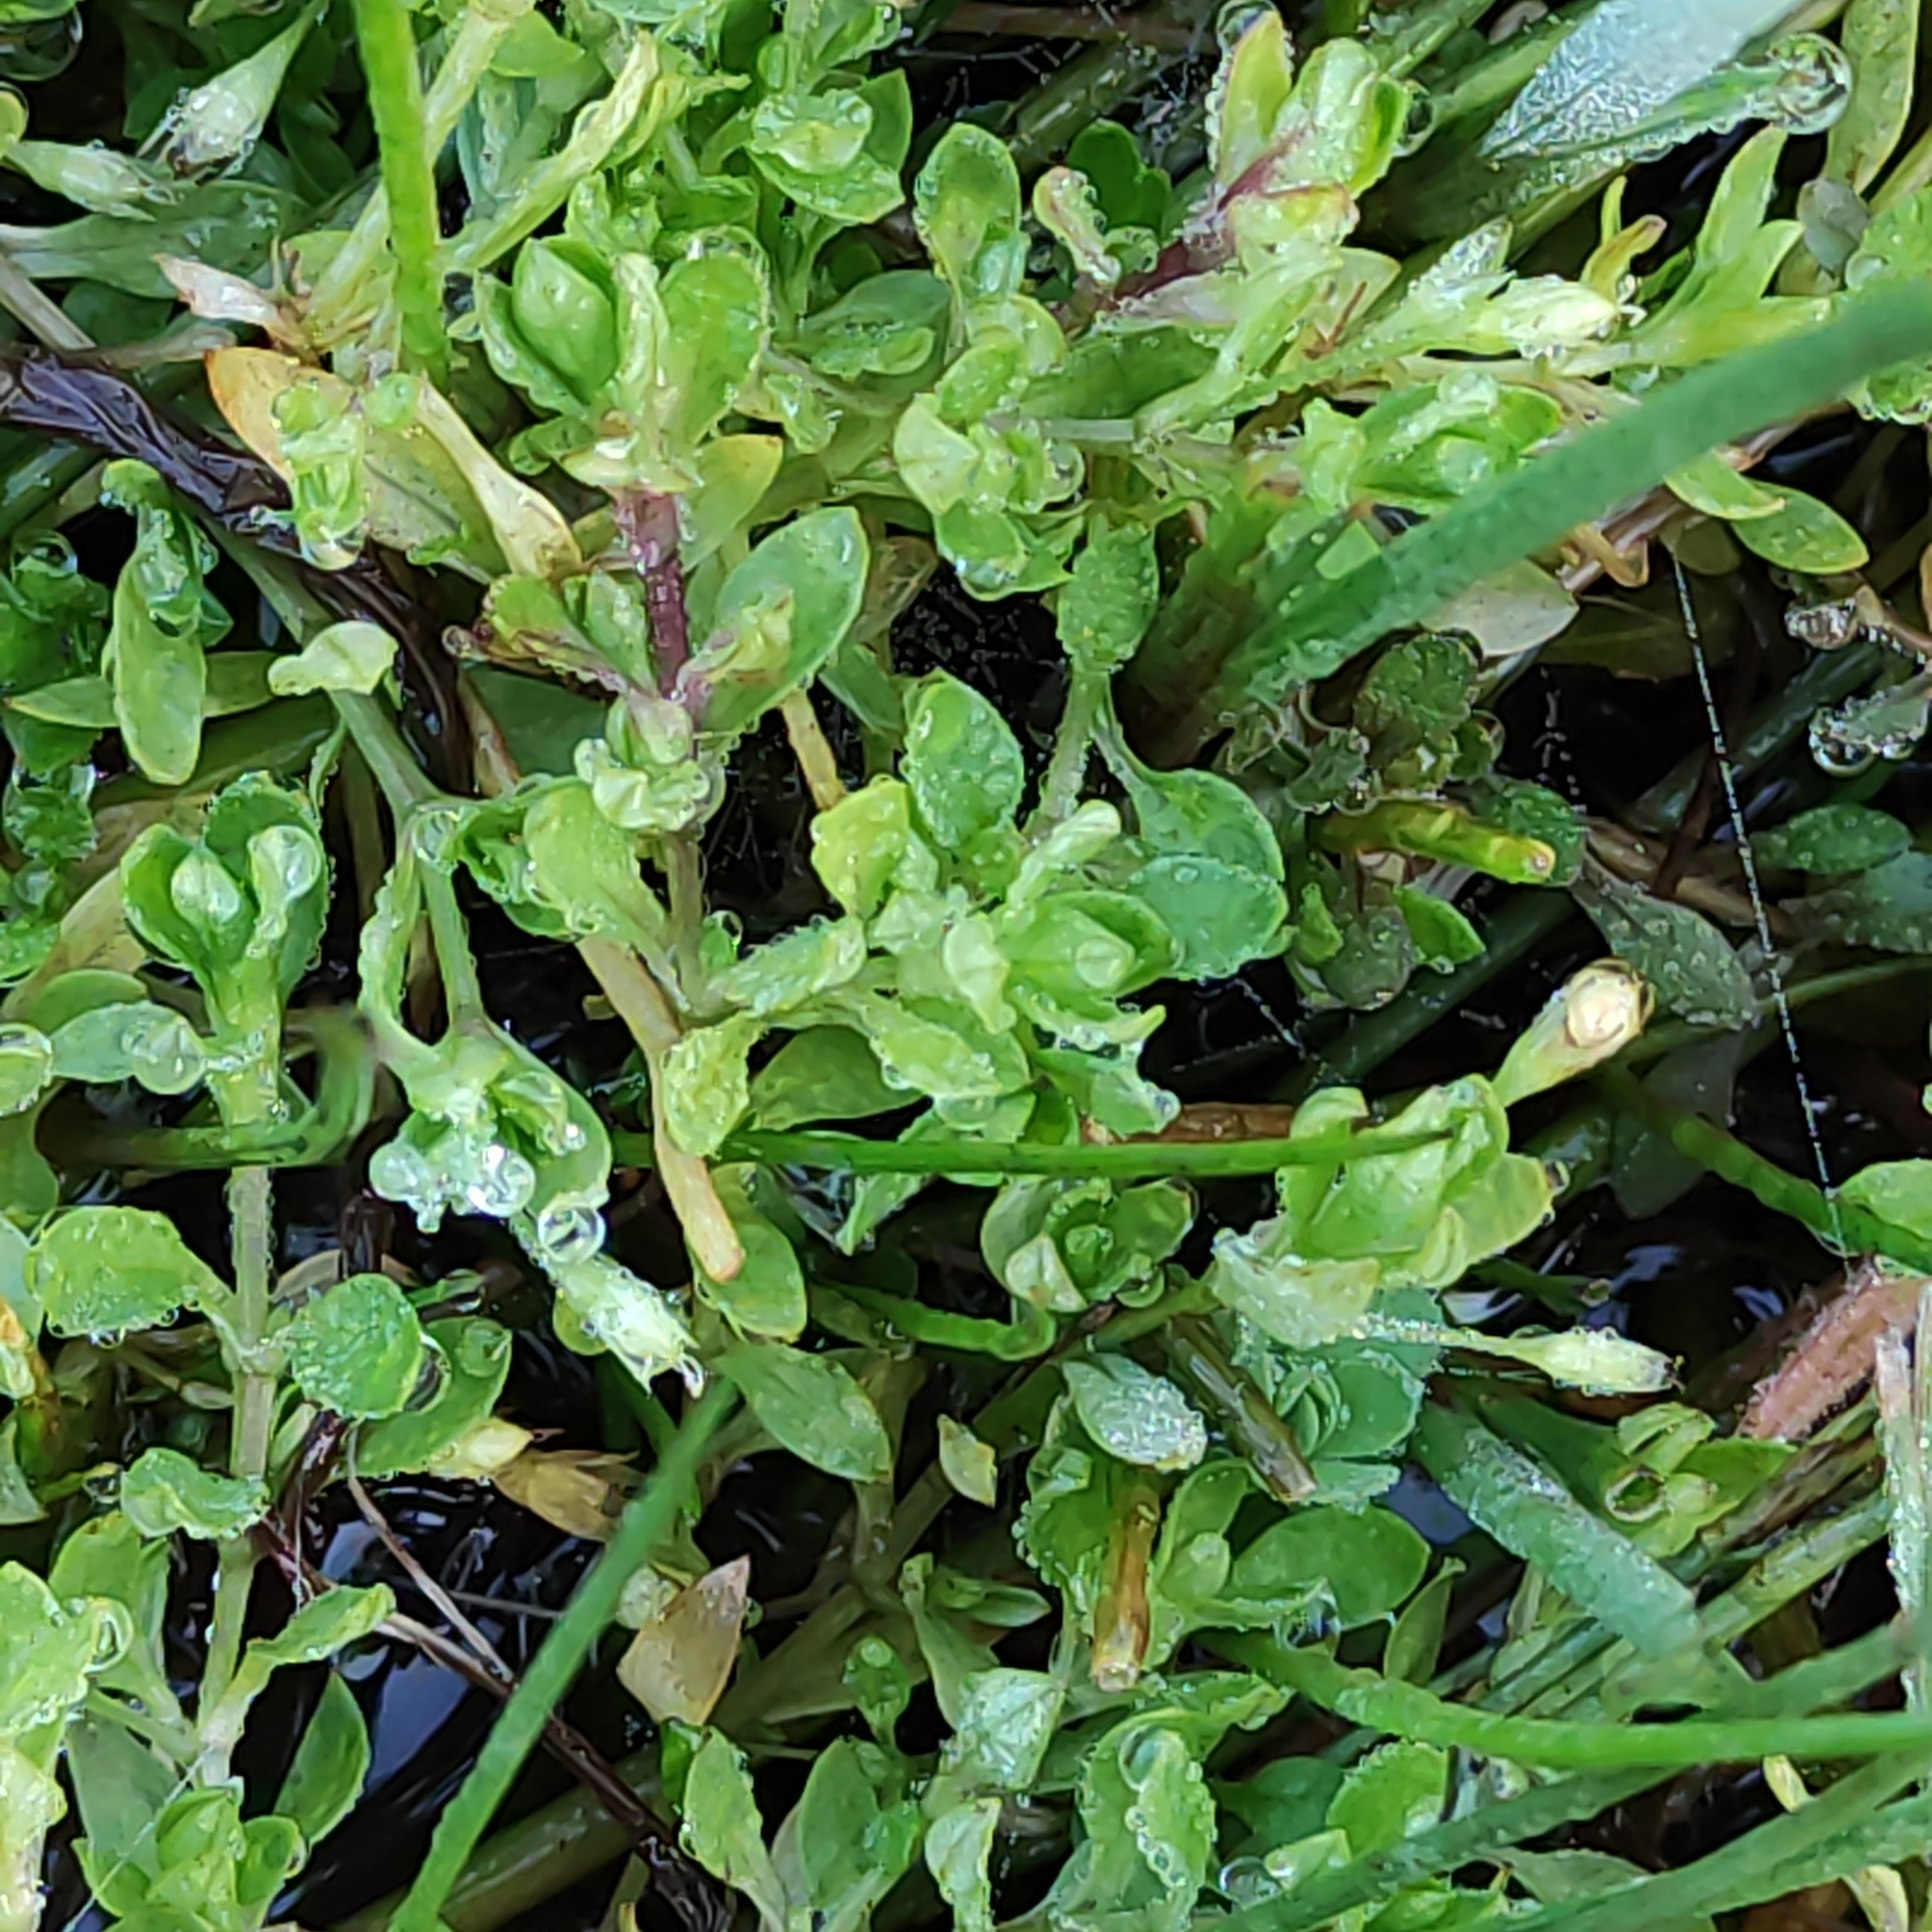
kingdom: Plantae
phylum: Tracheophyta
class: Magnoliopsida
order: Caryophyllales
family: Montiaceae
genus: Montia
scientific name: Montia fontana
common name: Blinks
